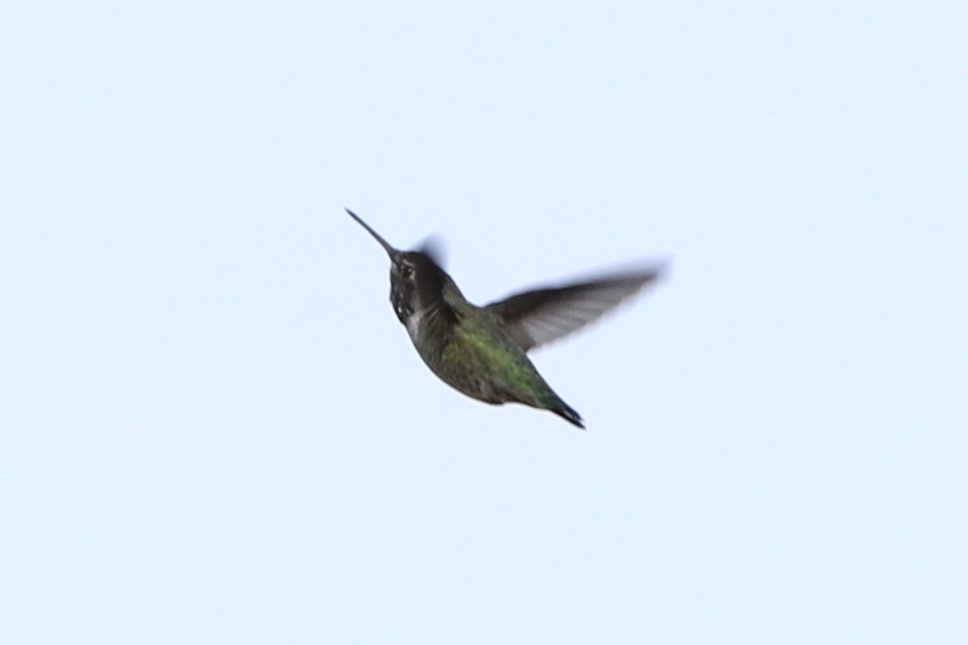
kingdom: Animalia
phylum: Chordata
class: Aves
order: Apodiformes
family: Trochilidae
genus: Calypte
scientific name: Calypte anna
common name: Anna's hummingbird
